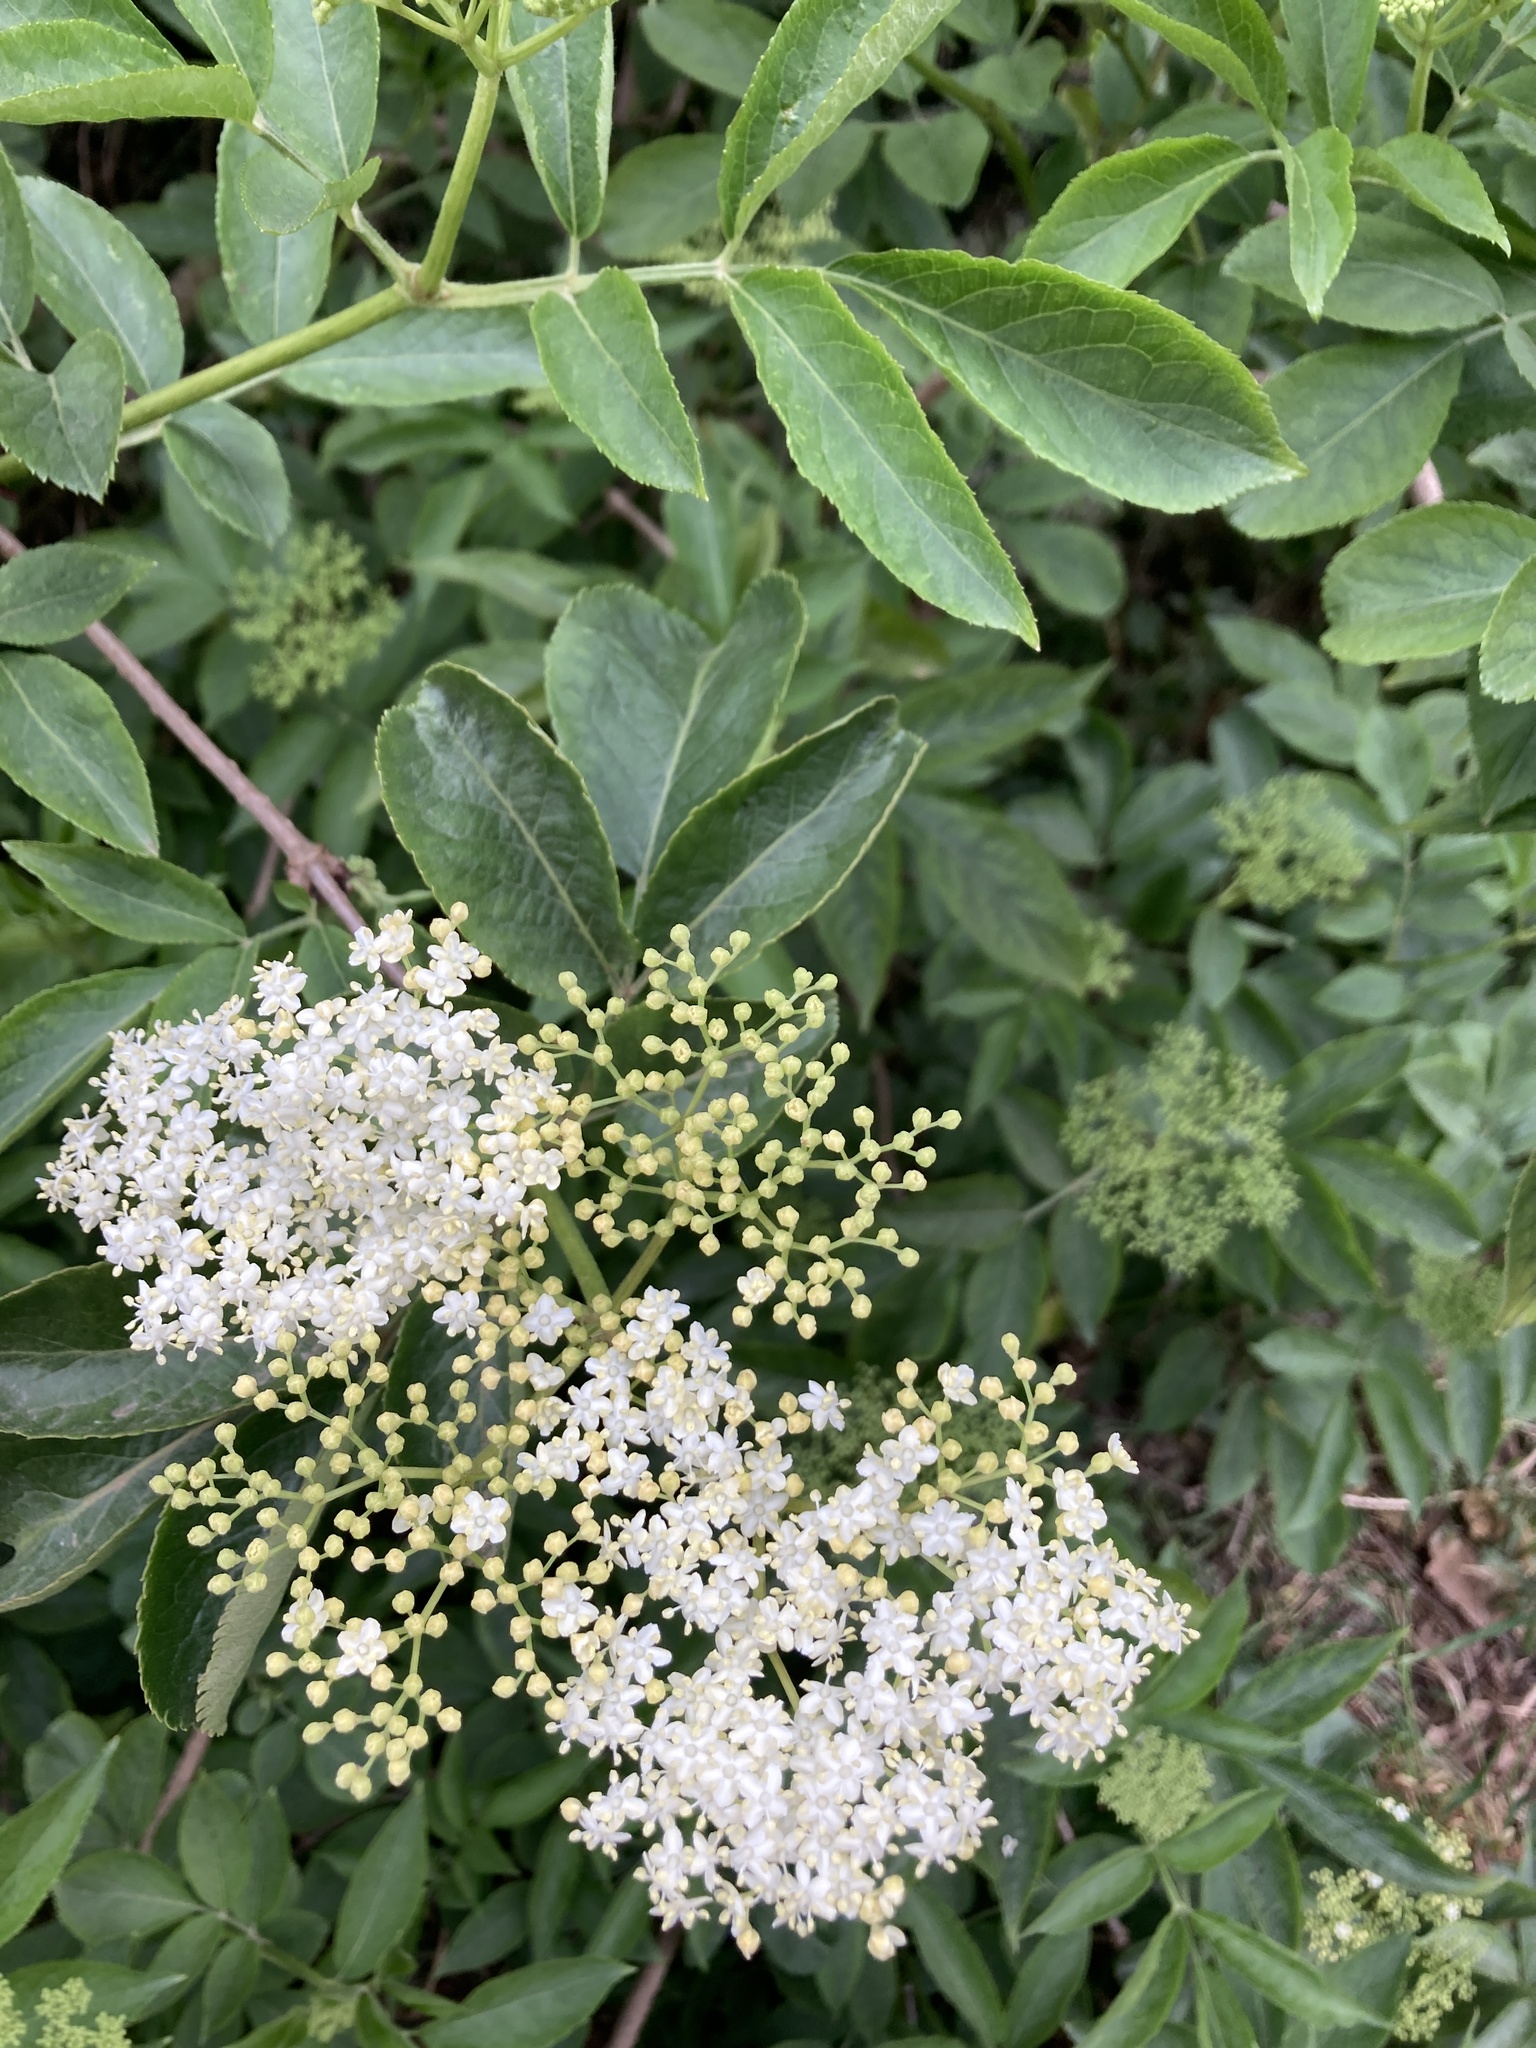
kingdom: Plantae
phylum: Tracheophyta
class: Magnoliopsida
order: Dipsacales
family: Viburnaceae
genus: Sambucus
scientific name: Sambucus nigra
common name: Elder
